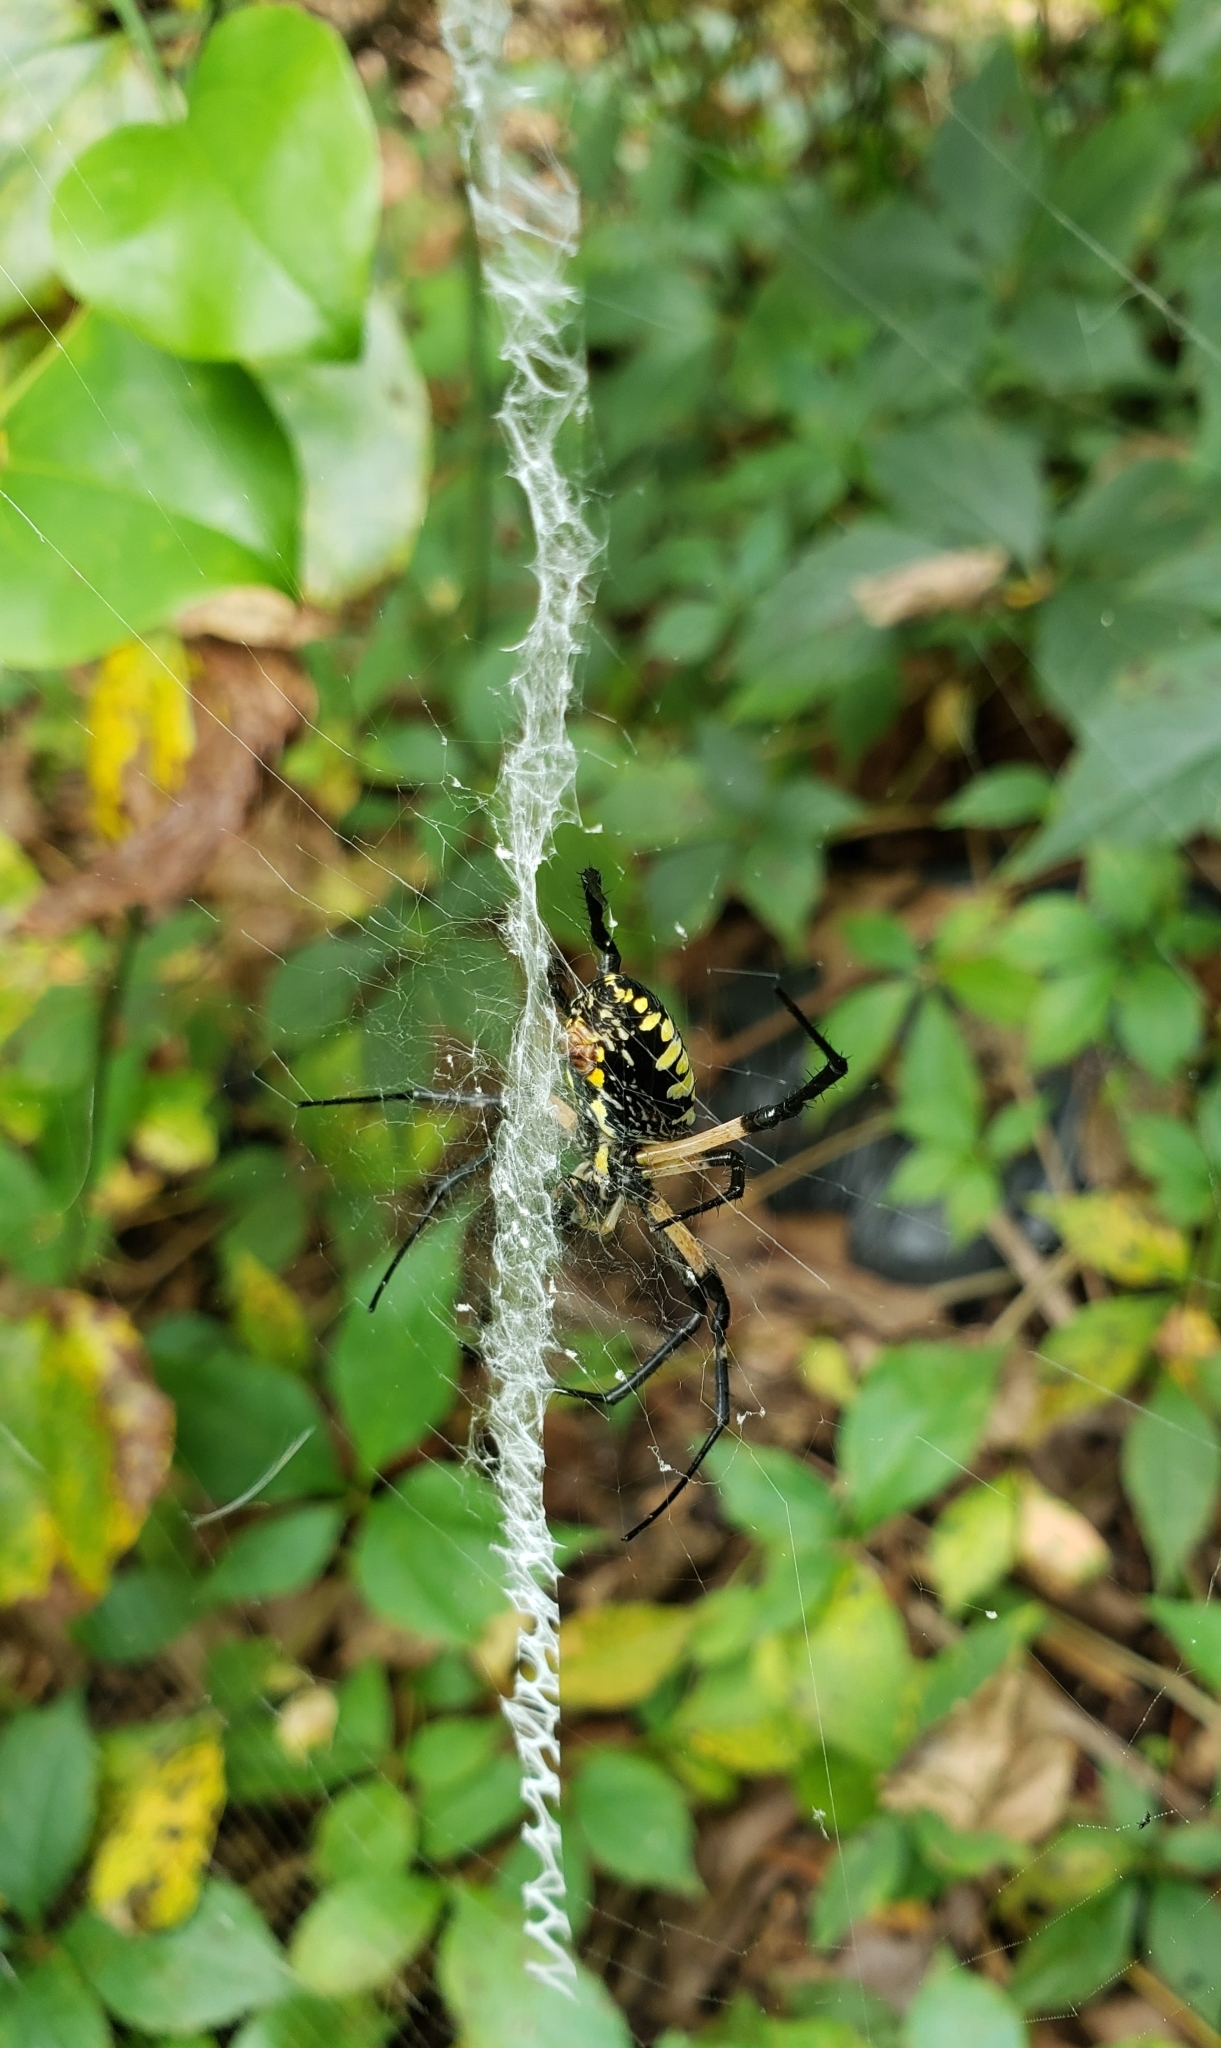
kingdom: Animalia
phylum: Arthropoda
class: Arachnida
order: Araneae
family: Araneidae
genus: Argiope
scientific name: Argiope aurantia
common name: Orb weavers
